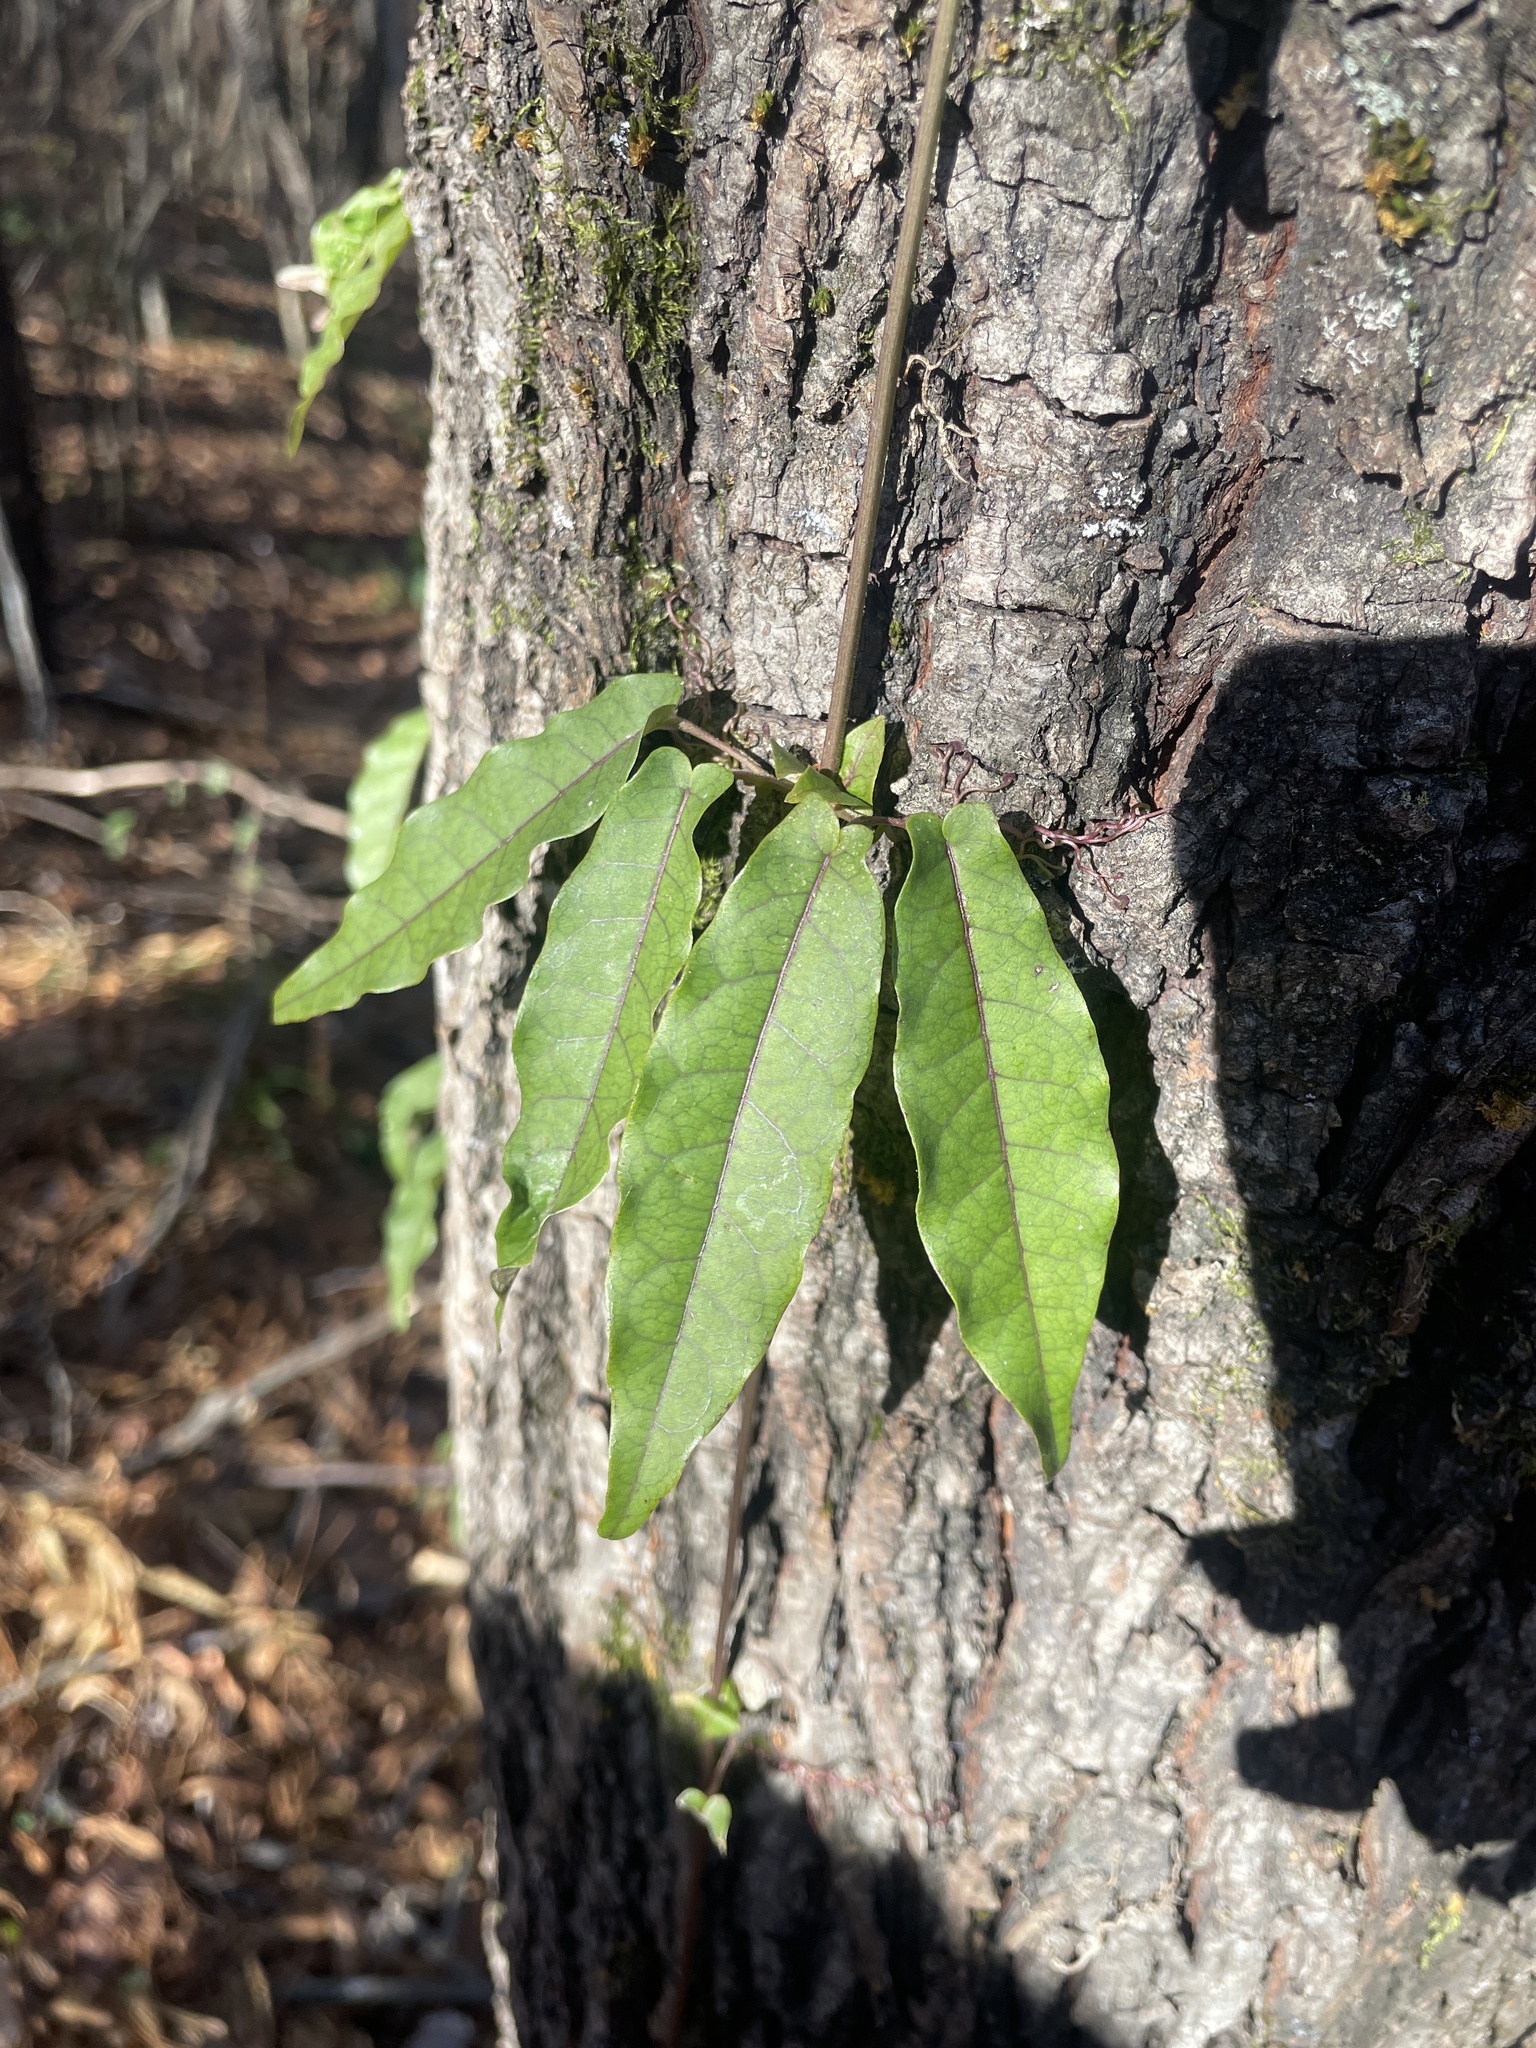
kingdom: Plantae
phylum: Tracheophyta
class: Magnoliopsida
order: Lamiales
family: Bignoniaceae
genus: Bignonia
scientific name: Bignonia capreolata
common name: Crossvine
